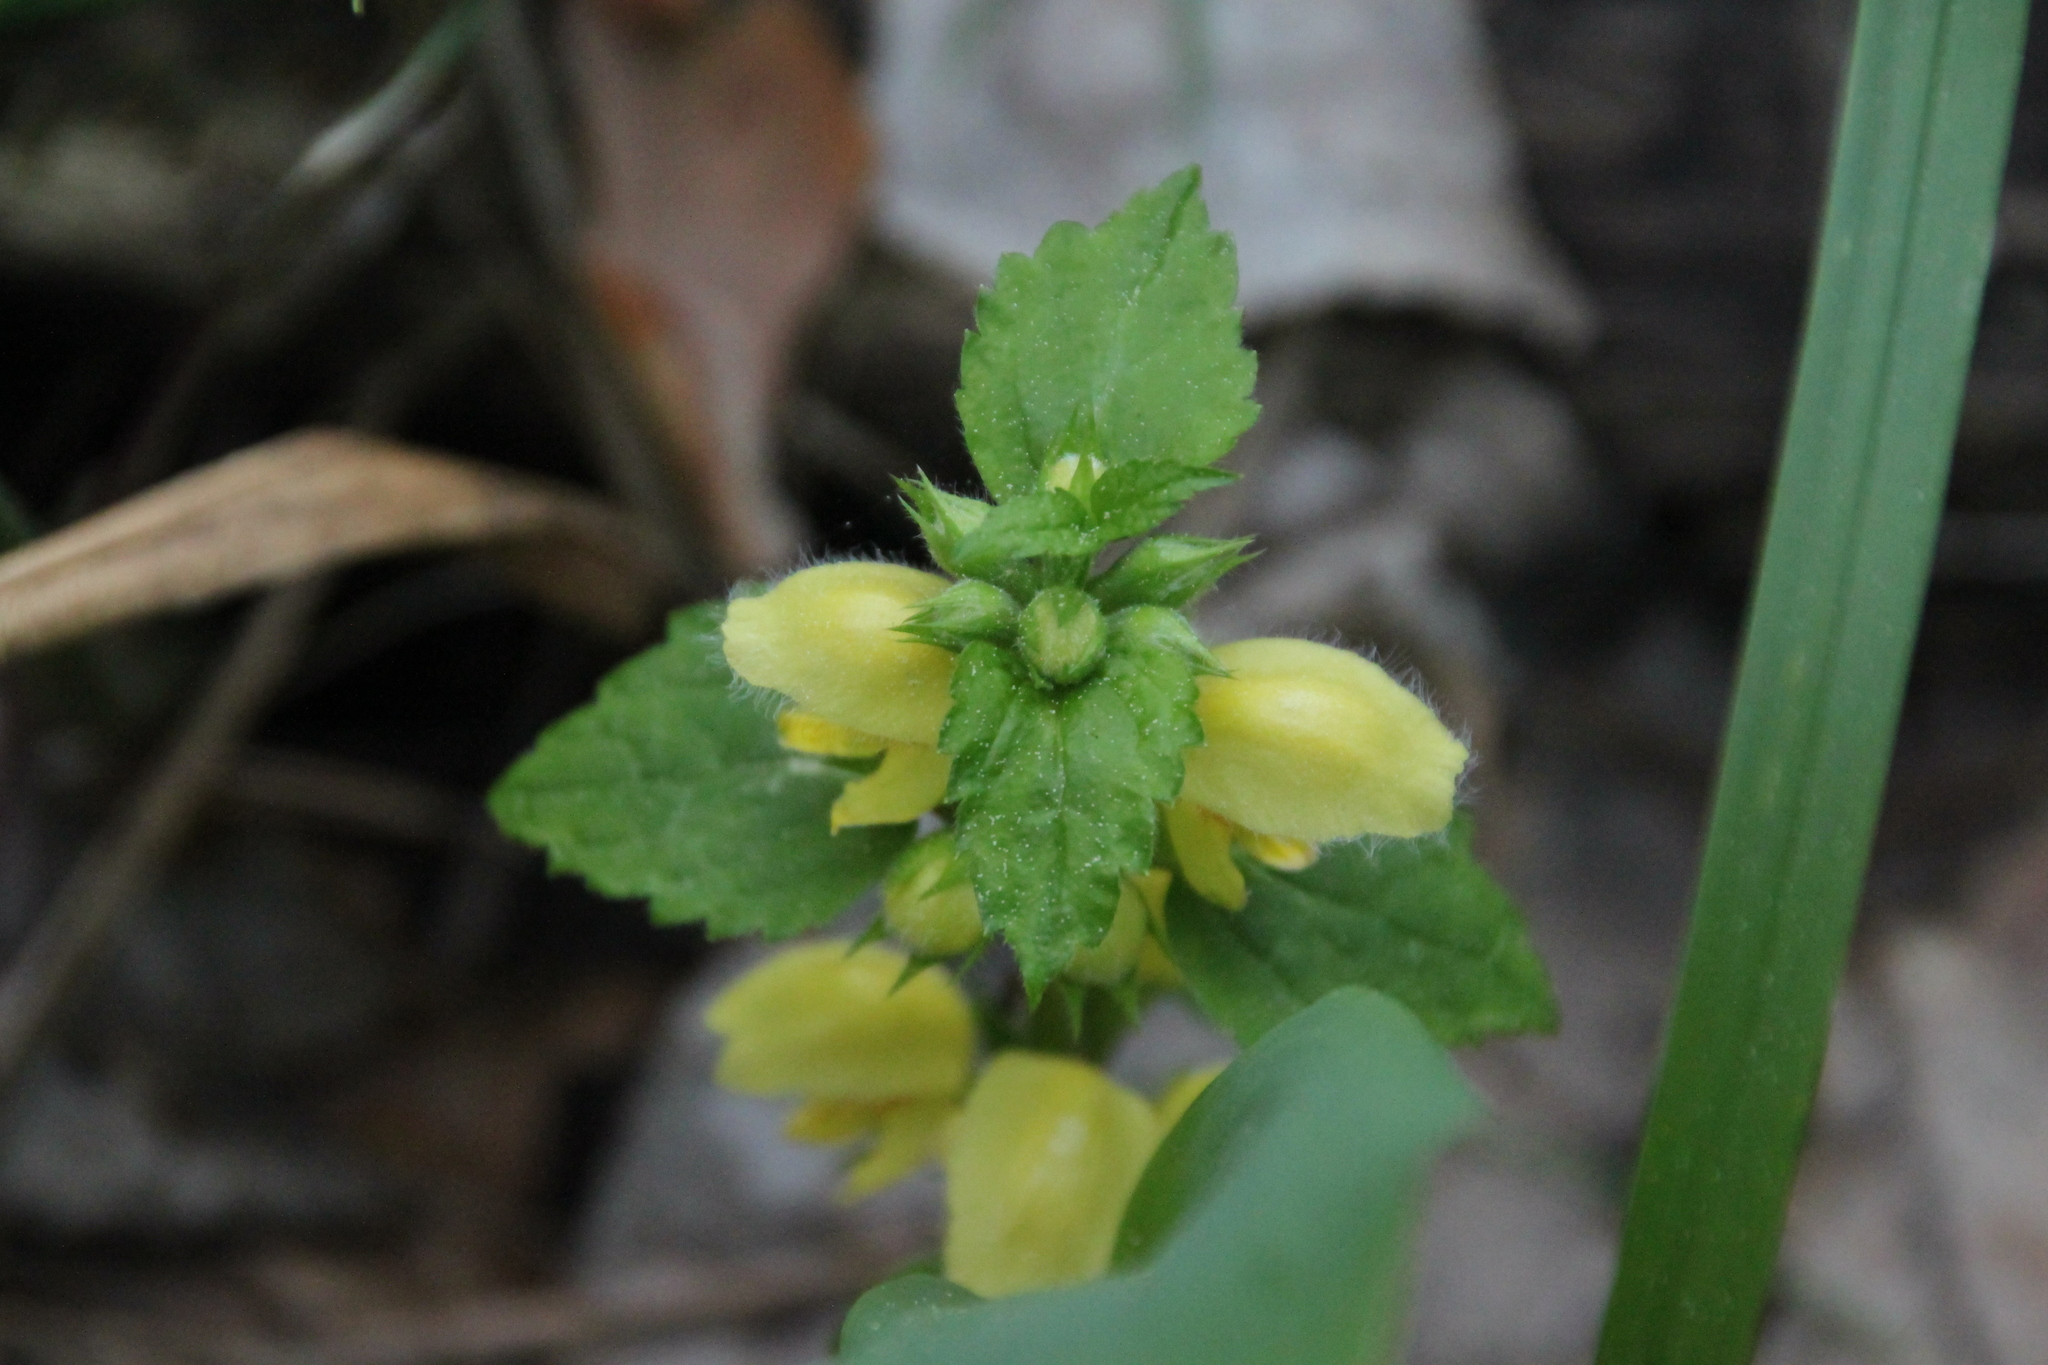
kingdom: Plantae
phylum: Tracheophyta
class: Magnoliopsida
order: Lamiales
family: Lamiaceae
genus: Lamium
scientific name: Lamium galeobdolon
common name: Yellow archangel
